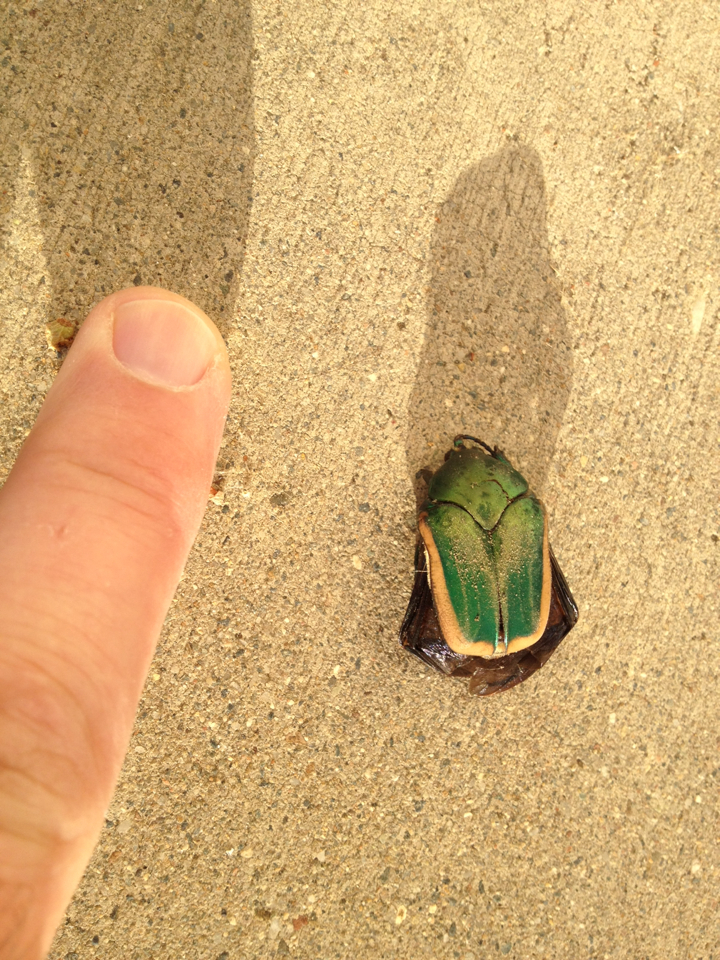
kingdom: Animalia
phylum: Arthropoda
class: Insecta
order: Coleoptera
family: Scarabaeidae
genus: Cotinis
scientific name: Cotinis mutabilis
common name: Figeater beetle
